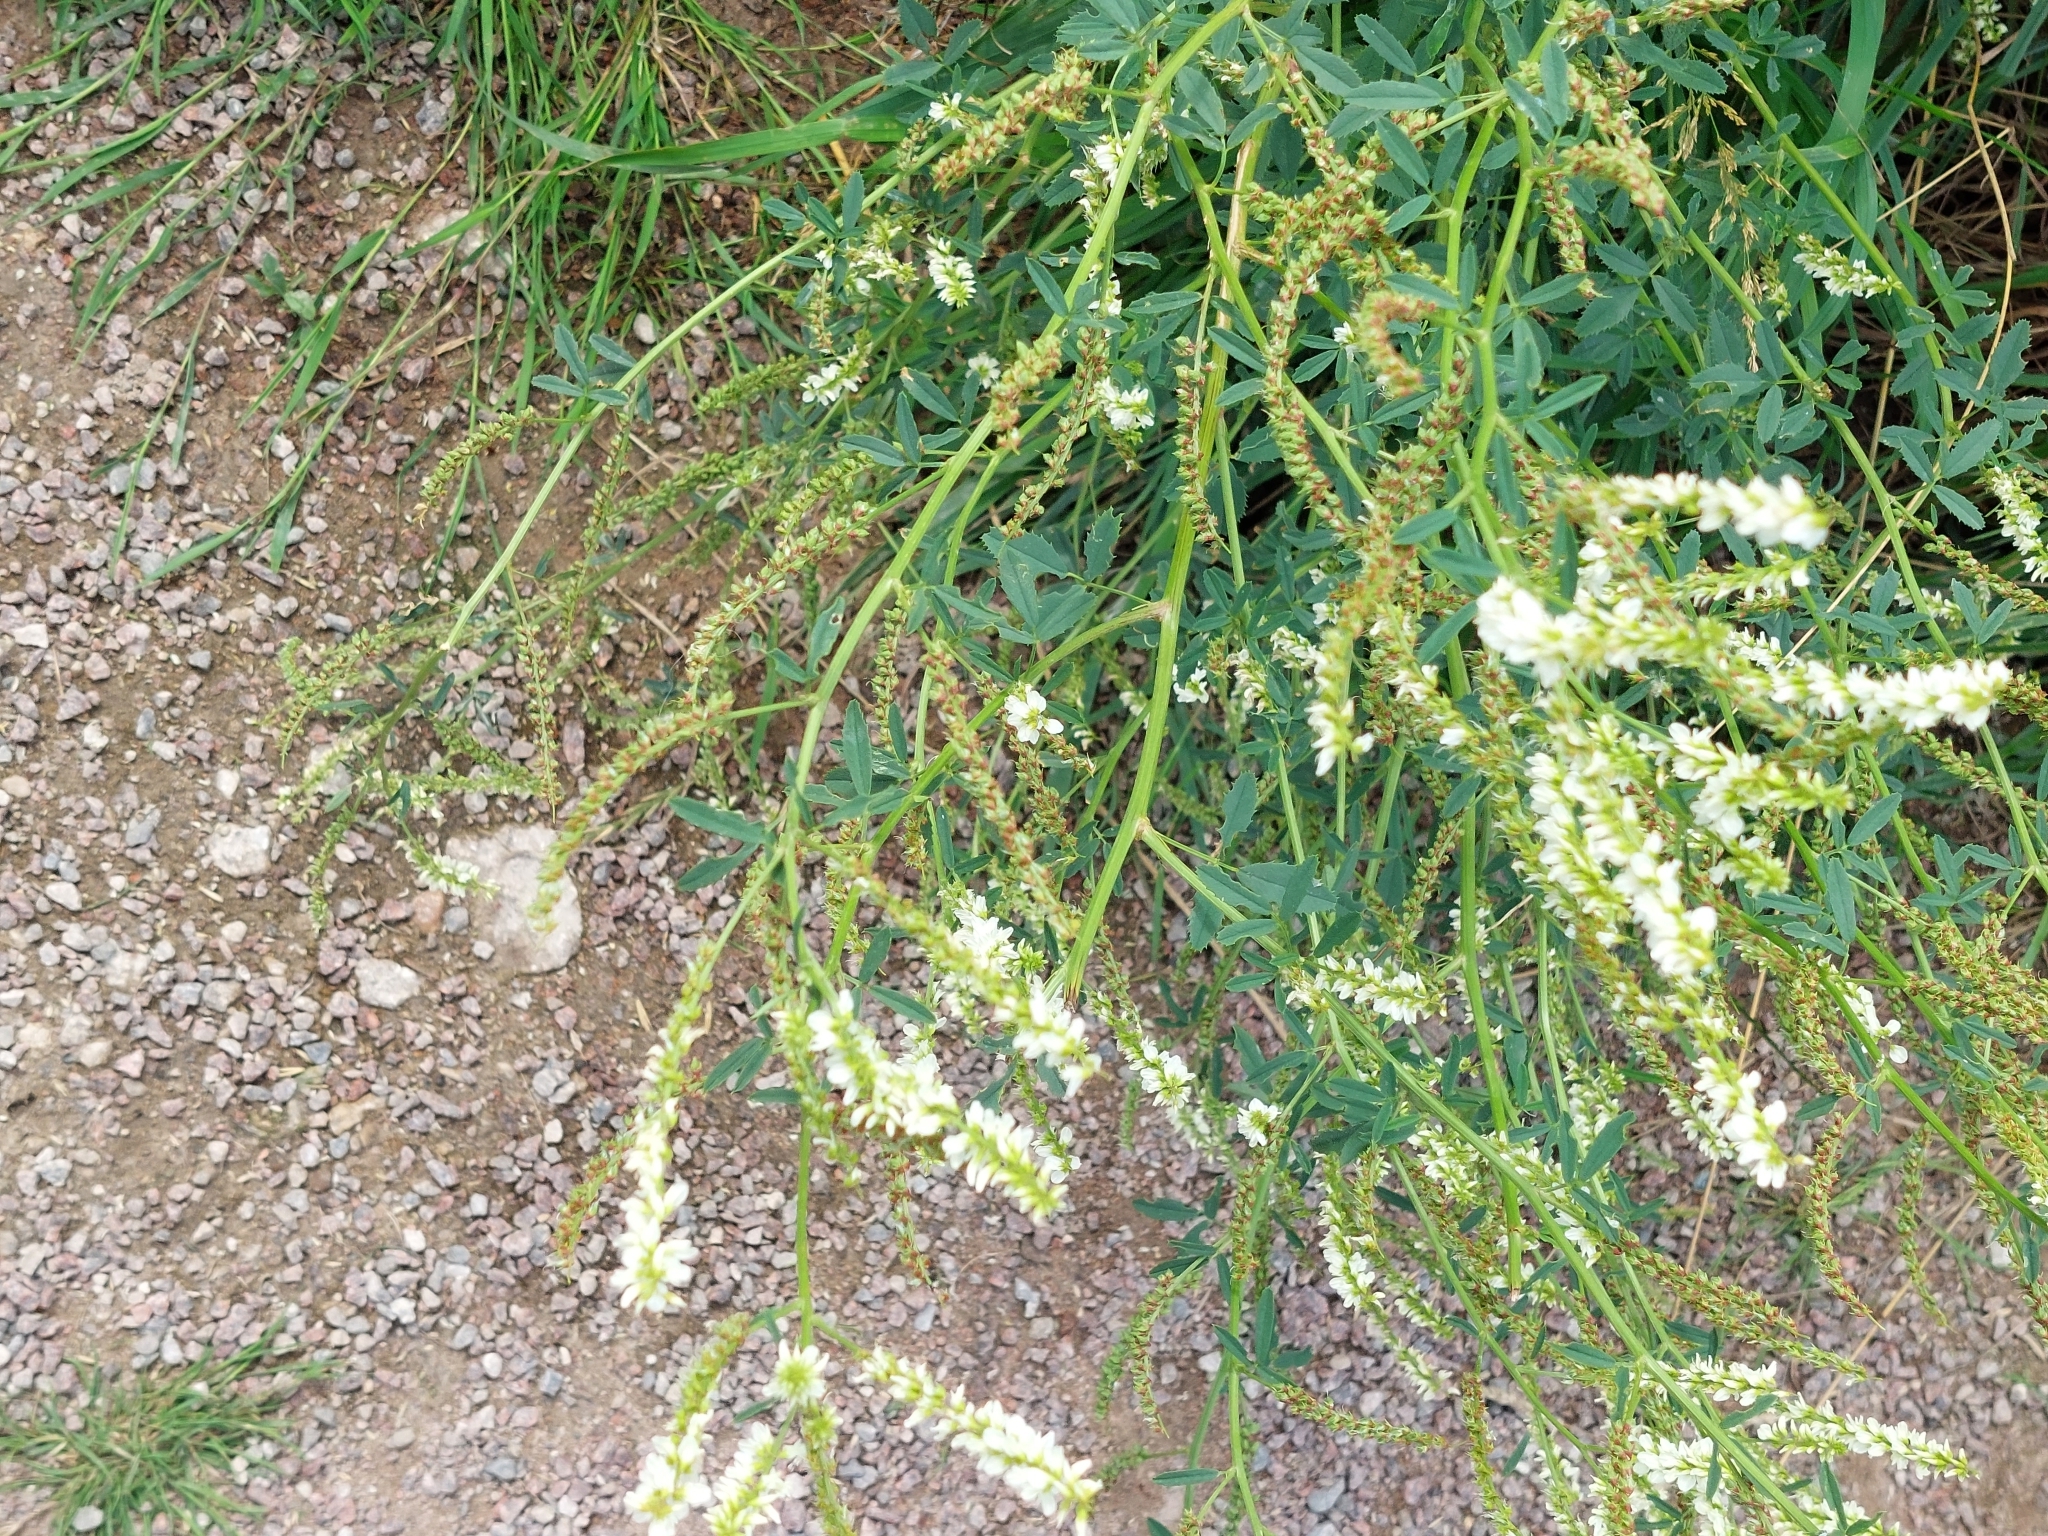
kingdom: Plantae
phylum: Tracheophyta
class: Magnoliopsida
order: Fabales
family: Fabaceae
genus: Melilotus
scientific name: Melilotus albus
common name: White melilot
